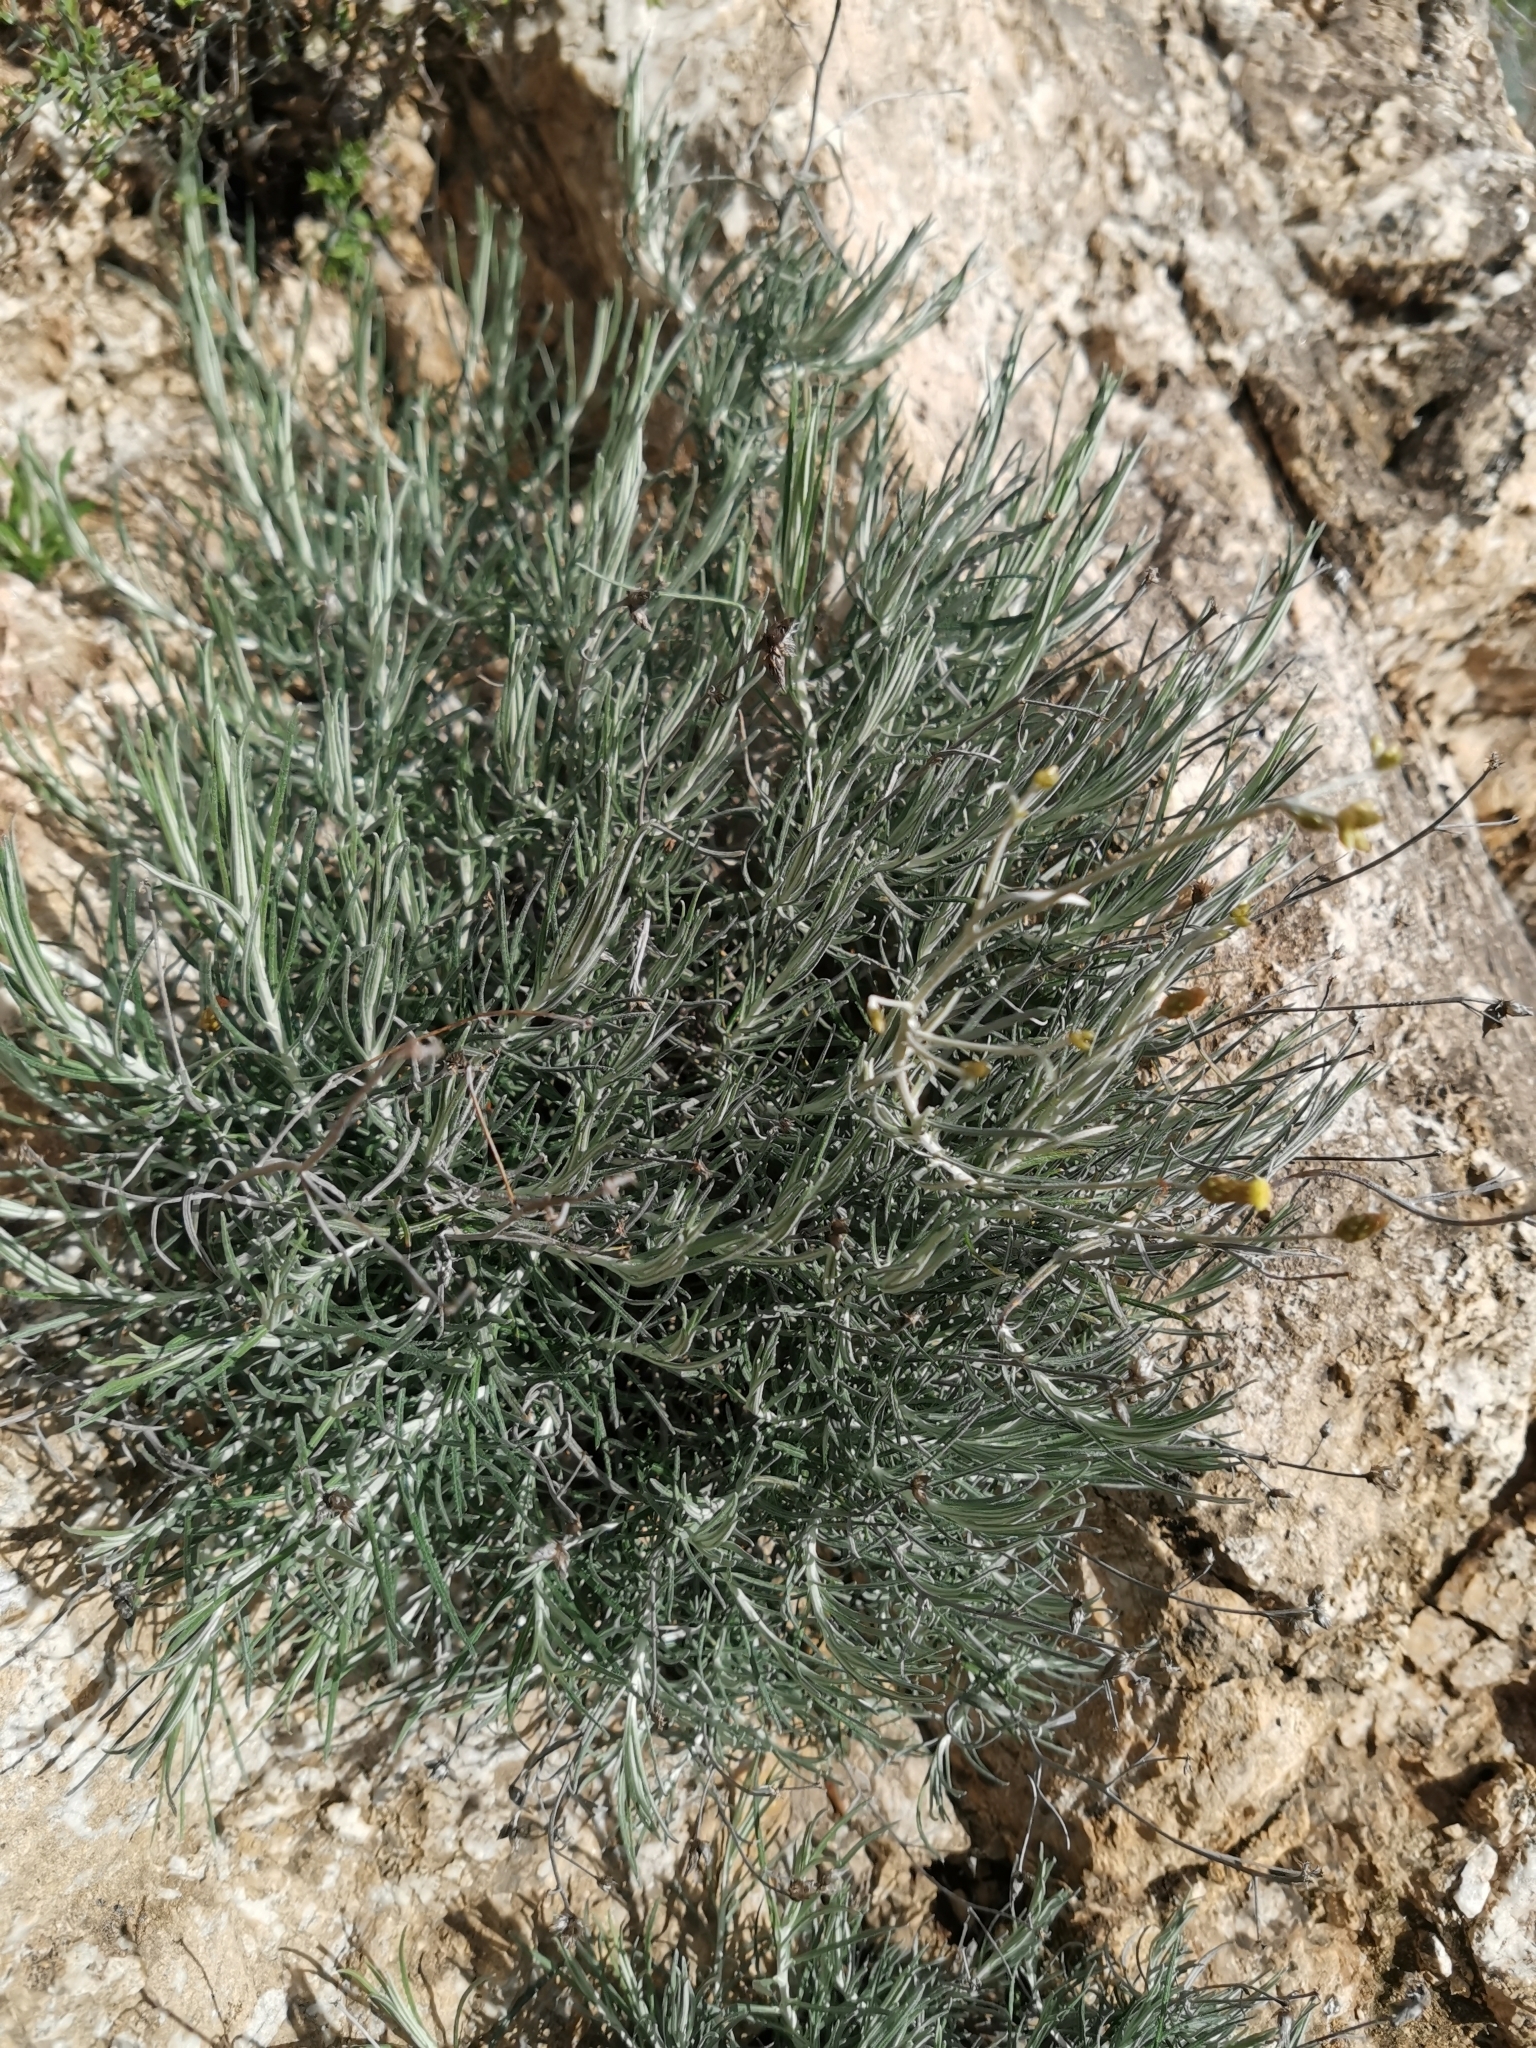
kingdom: Plantae
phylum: Tracheophyta
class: Magnoliopsida
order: Asterales
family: Asteraceae
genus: Phagnalon
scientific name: Phagnalon sordidum
